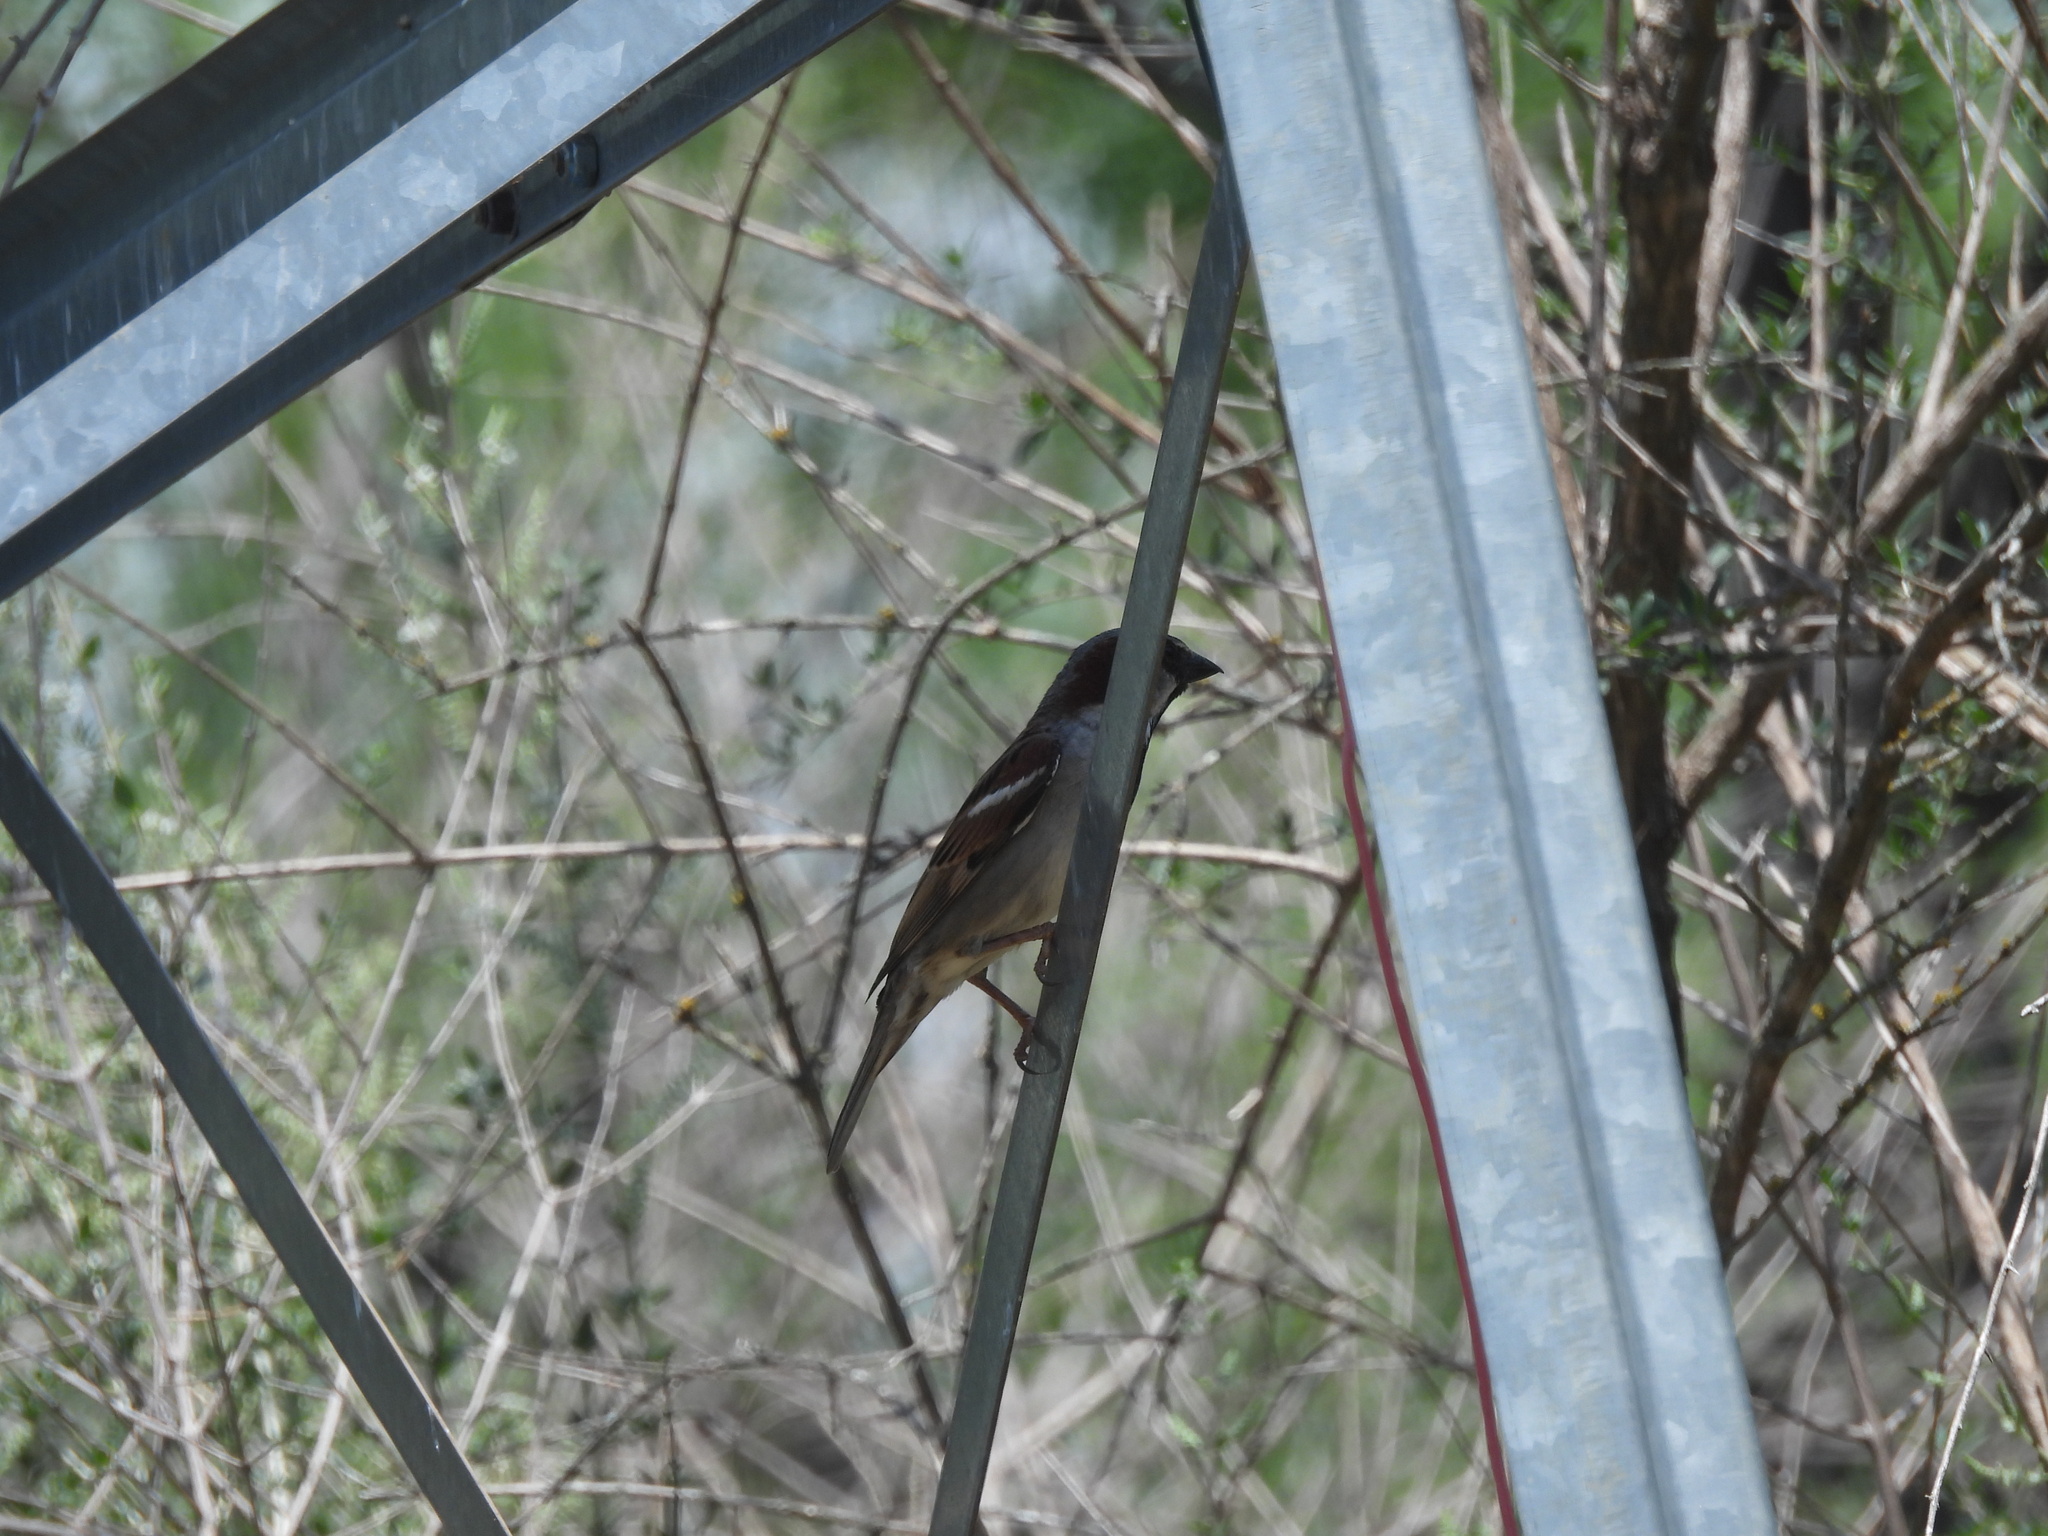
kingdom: Animalia
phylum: Chordata
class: Aves
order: Passeriformes
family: Passeridae
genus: Passer
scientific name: Passer domesticus
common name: House sparrow
